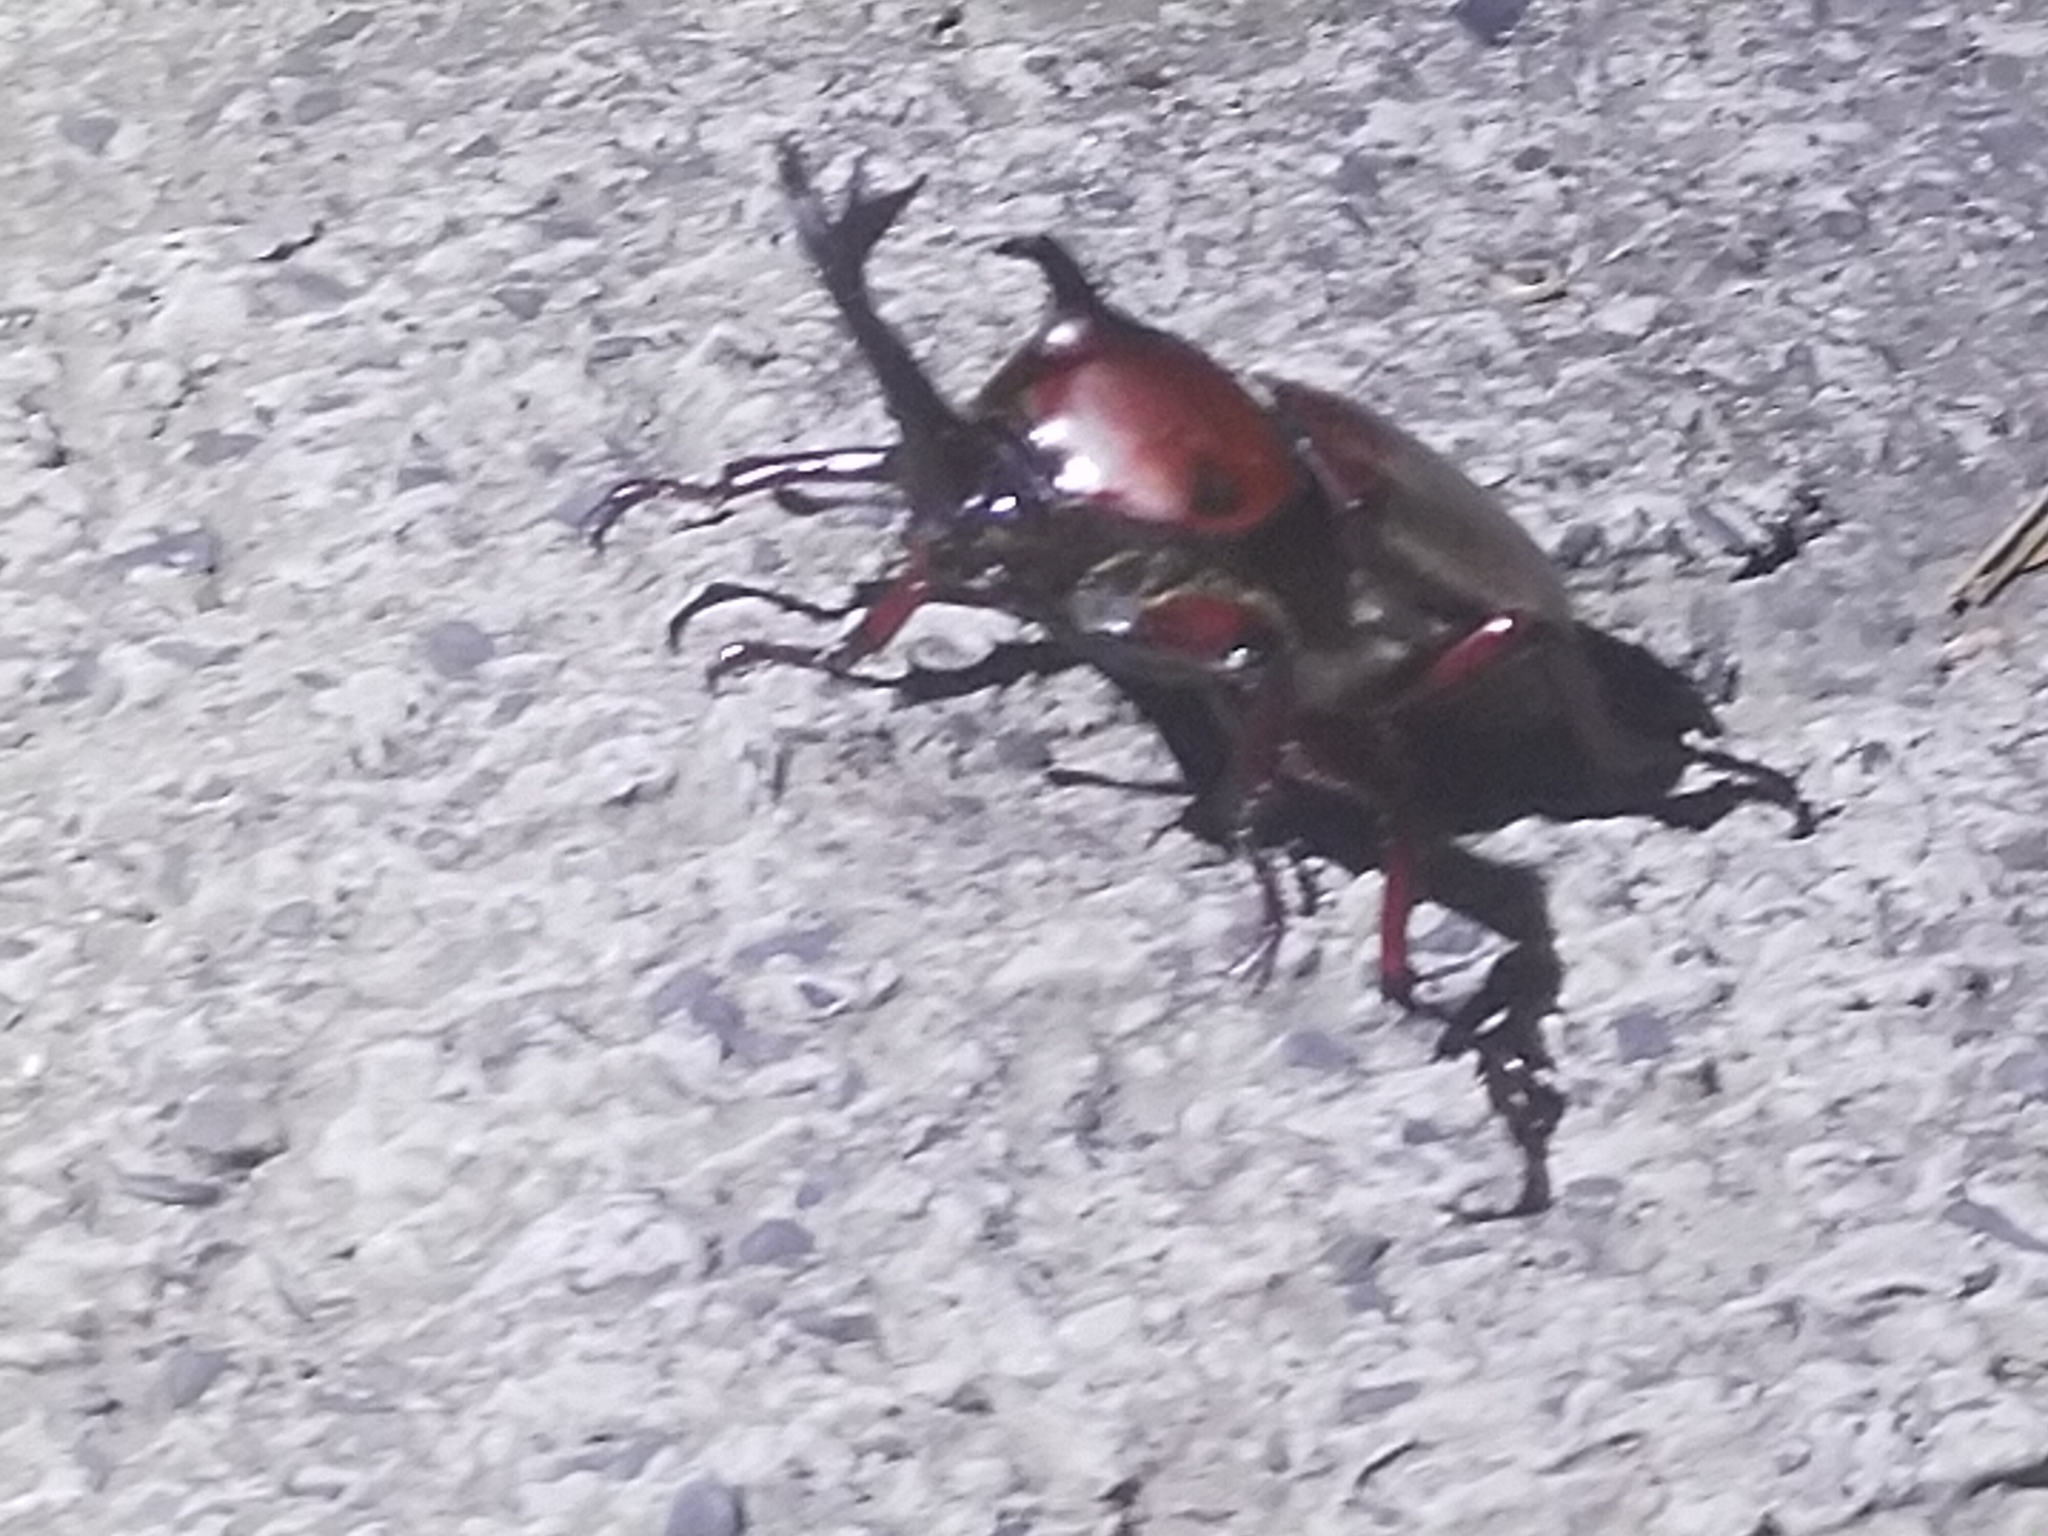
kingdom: Animalia
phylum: Arthropoda
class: Insecta
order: Coleoptera
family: Scarabaeidae
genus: Trypoxylus
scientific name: Trypoxylus dichotomus
